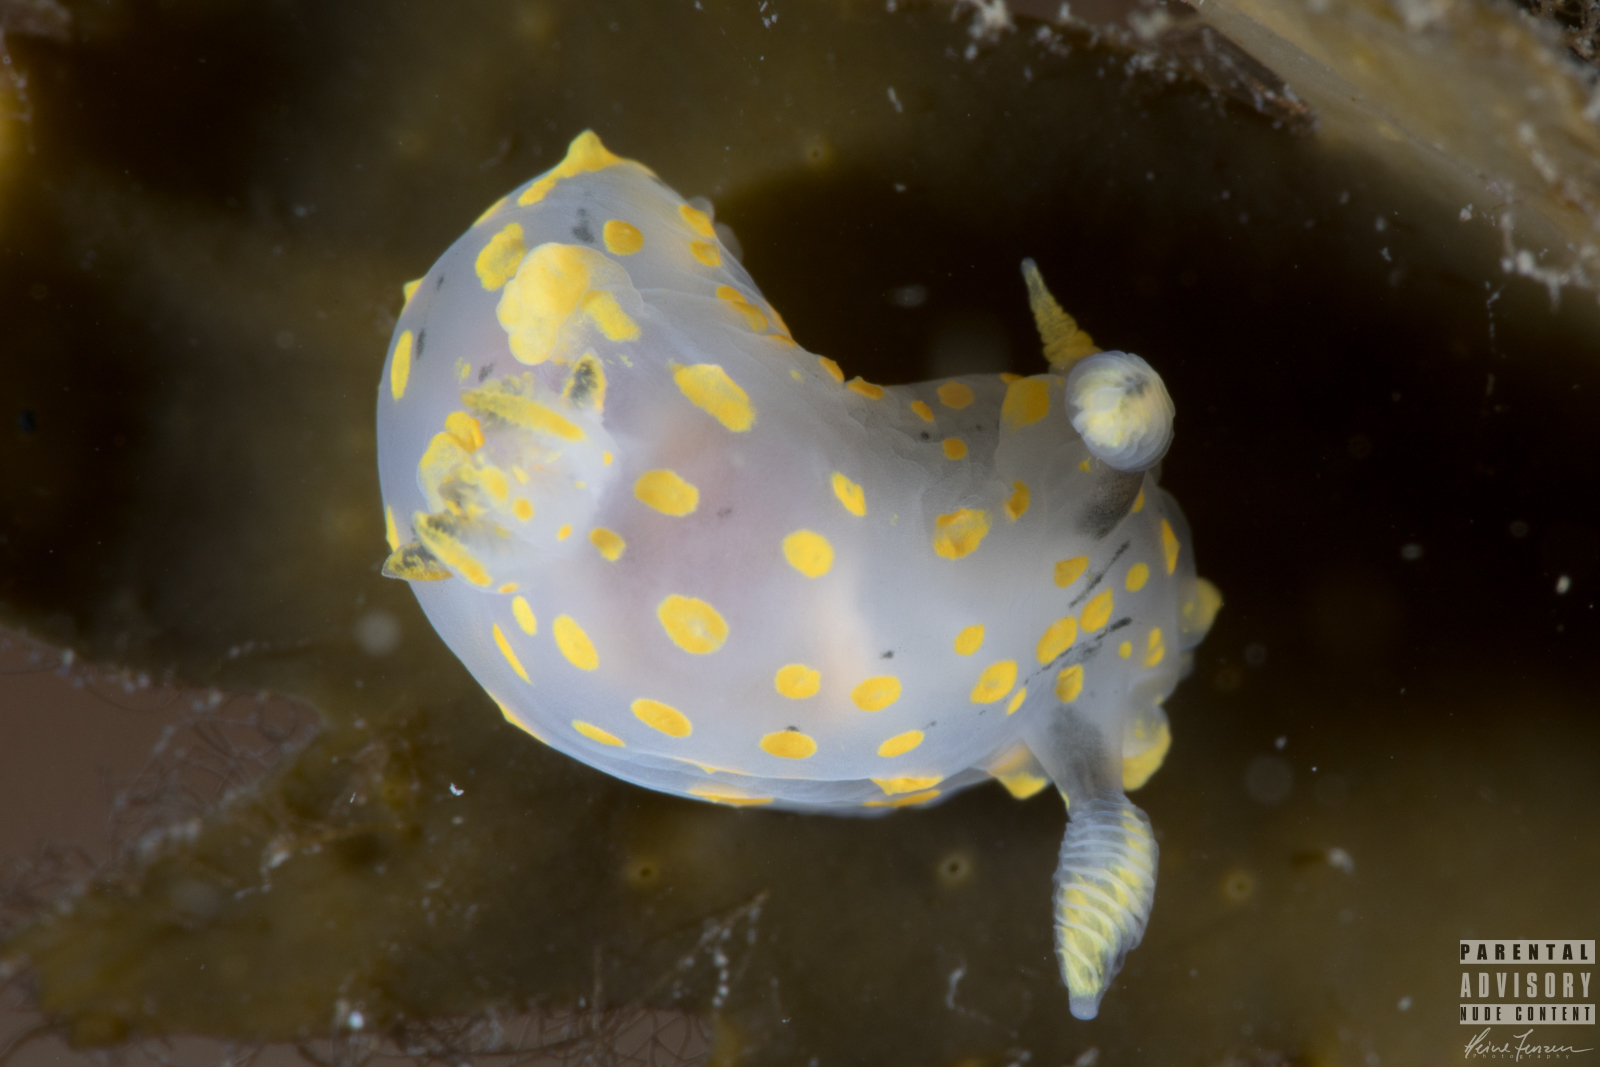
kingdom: Animalia
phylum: Mollusca
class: Gastropoda
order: Nudibranchia
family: Polyceridae
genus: Polycera
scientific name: Polycera quadrilineata
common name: Four-striped polycera
